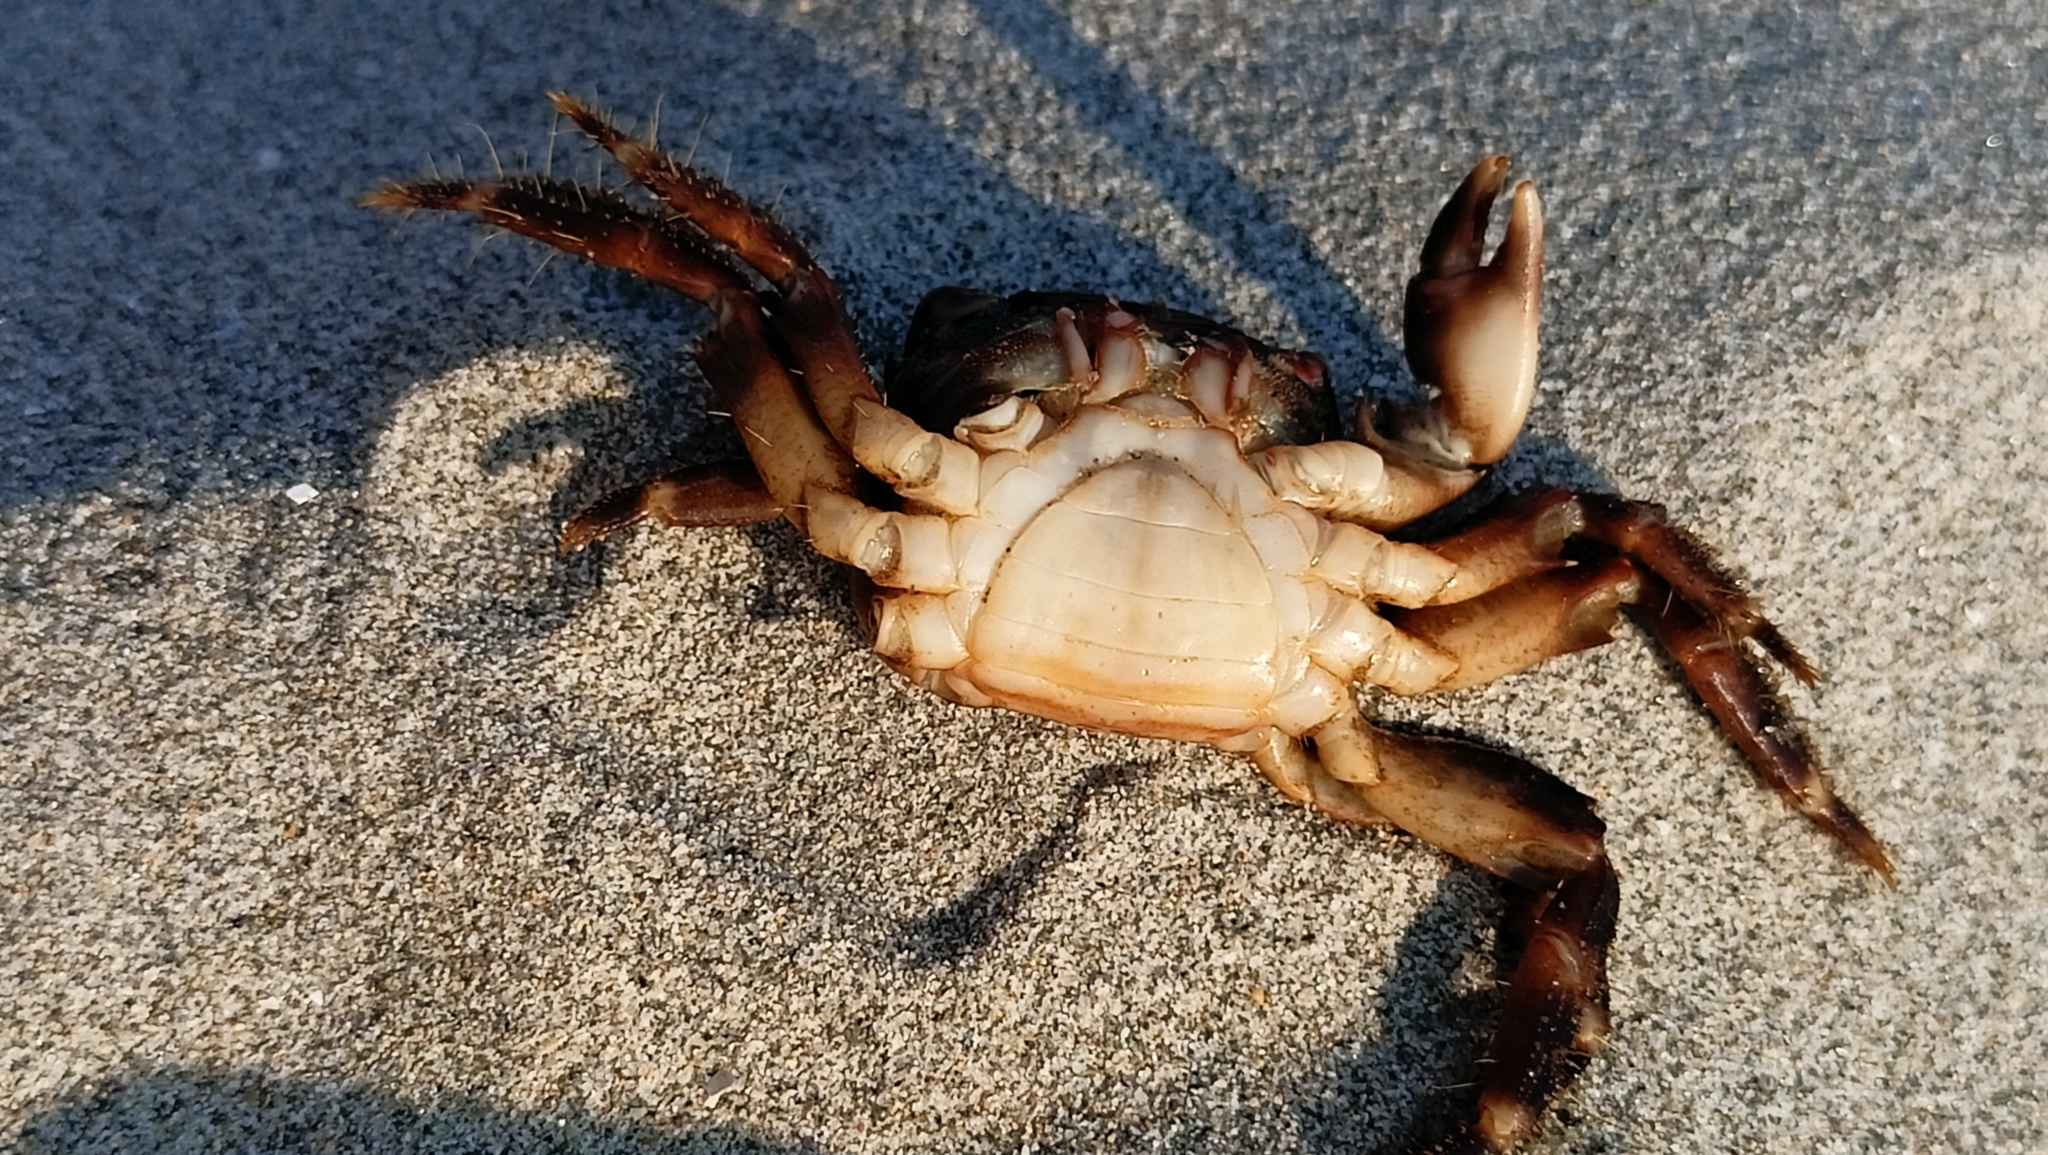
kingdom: Animalia
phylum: Arthropoda
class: Malacostraca
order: Decapoda
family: Grapsidae
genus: Pachygrapsus
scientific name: Pachygrapsus marmoratus
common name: Marbled rock crab
